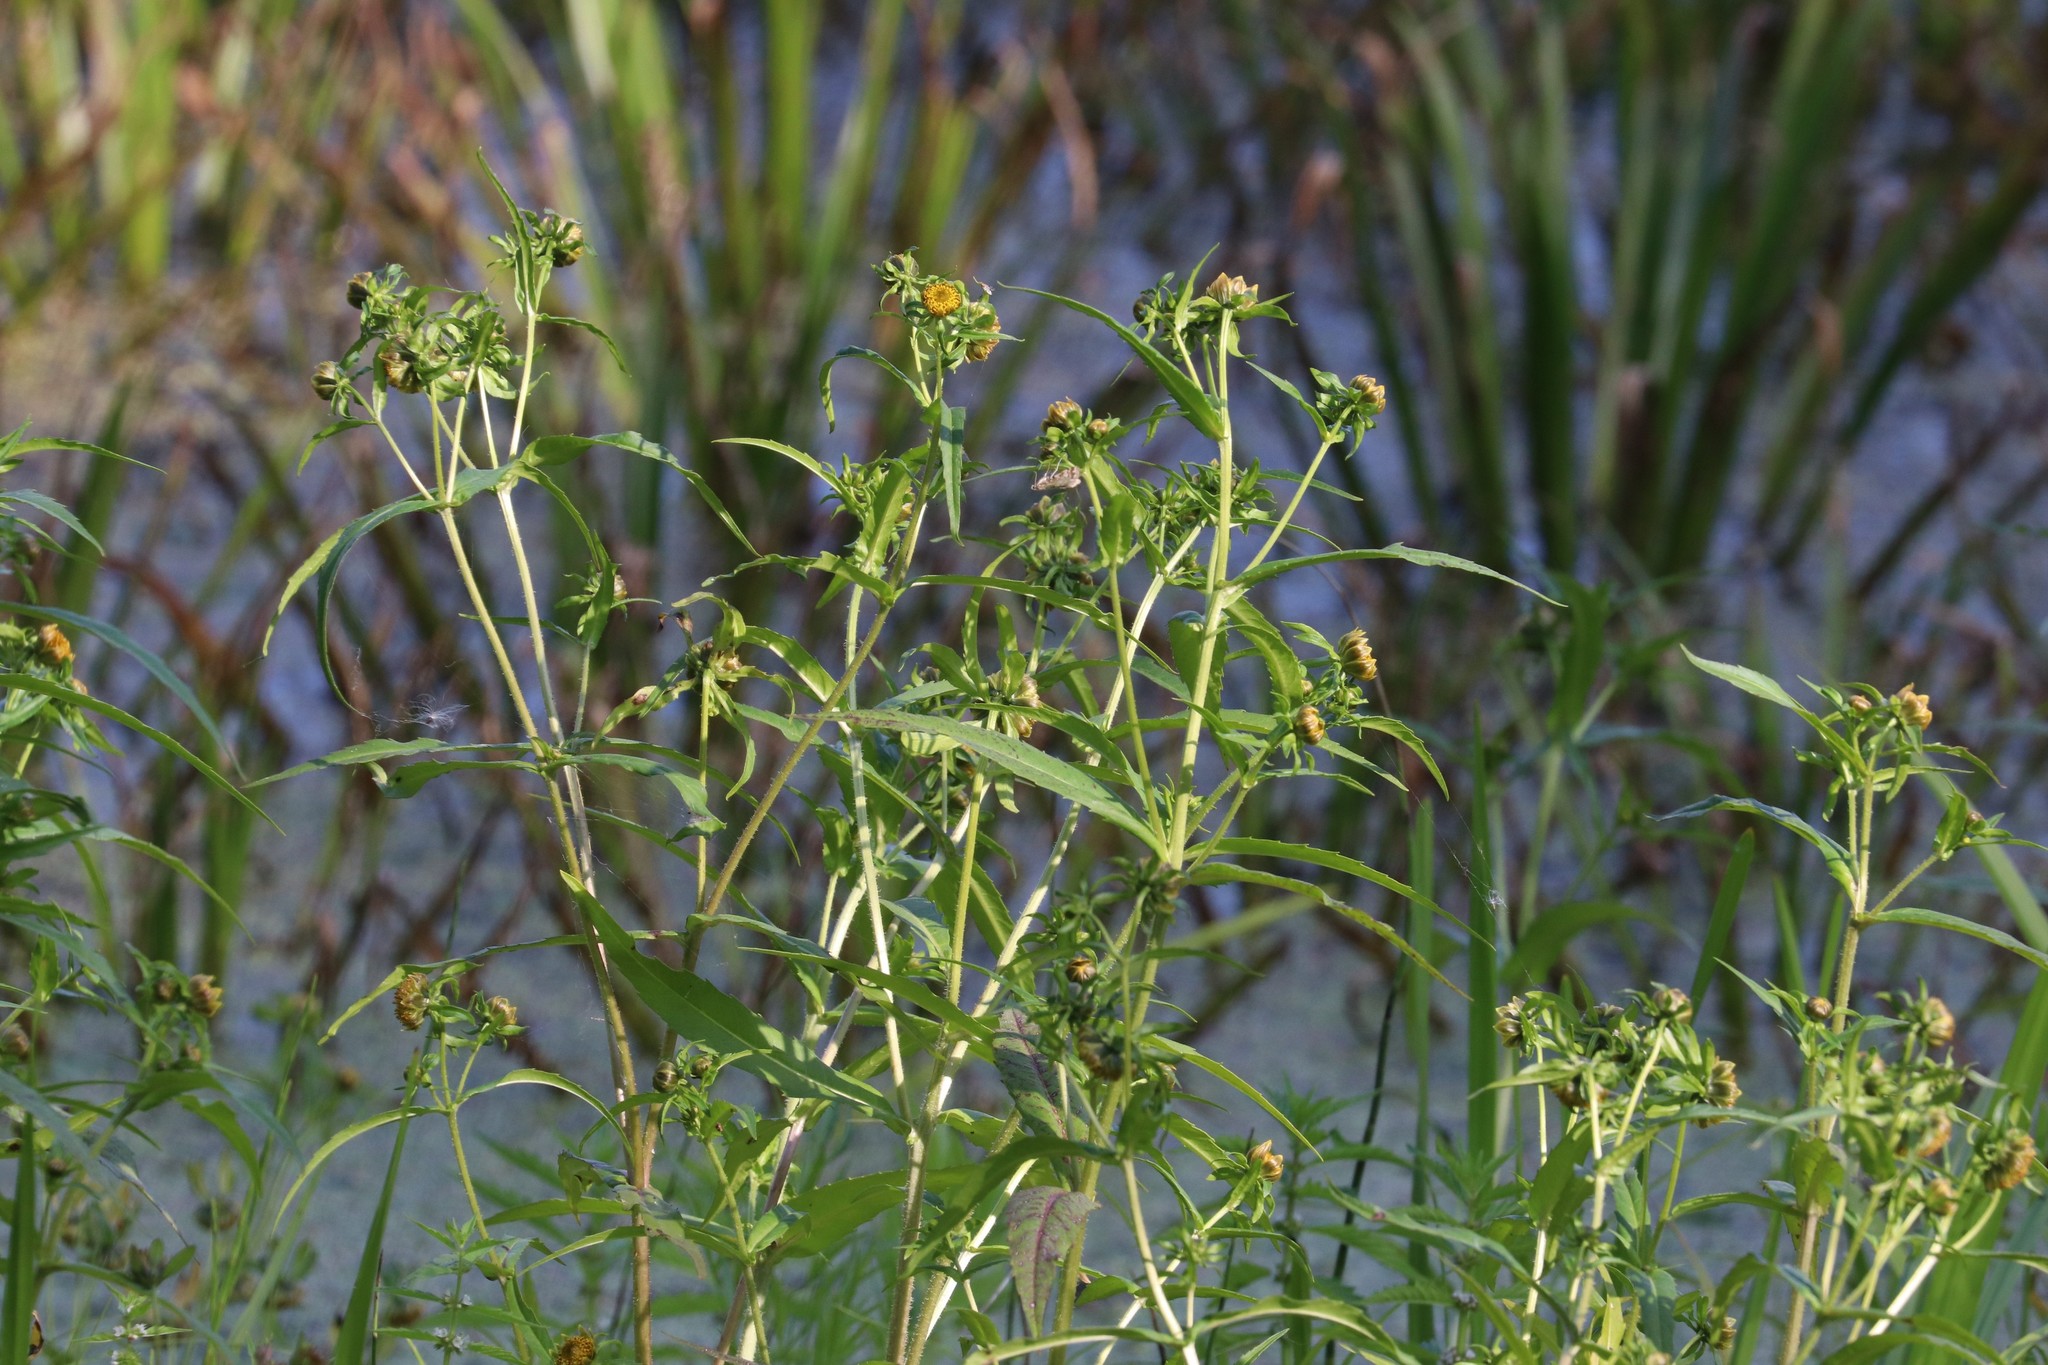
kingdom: Plantae
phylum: Tracheophyta
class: Magnoliopsida
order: Asterales
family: Asteraceae
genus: Bidens
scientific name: Bidens cernua
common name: Nodding bur-marigold
